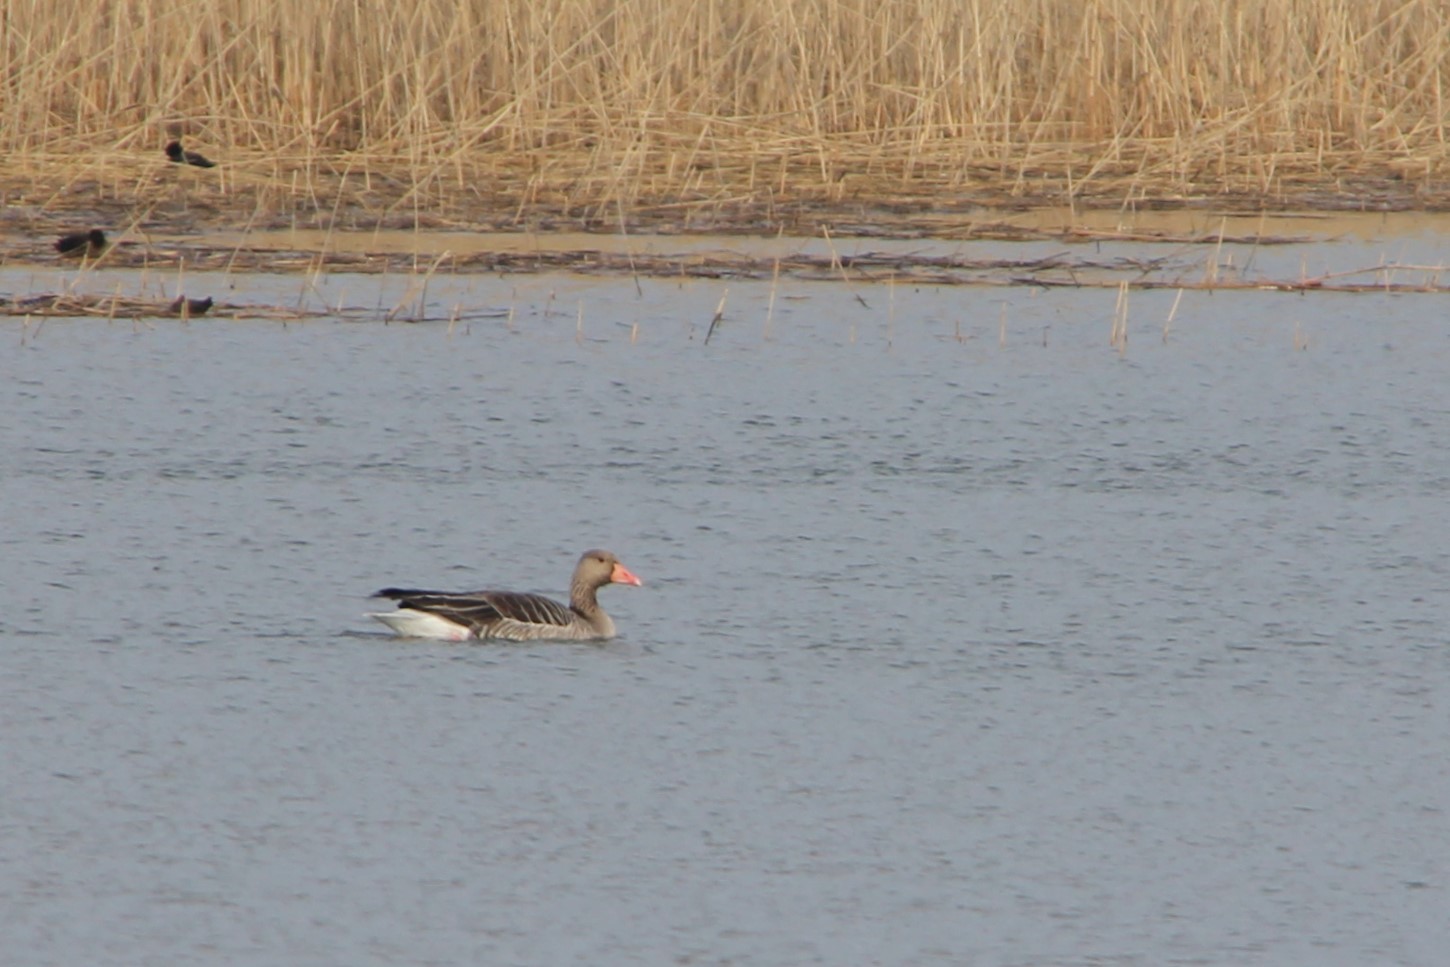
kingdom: Animalia
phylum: Chordata
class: Aves
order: Anseriformes
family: Anatidae
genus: Anser
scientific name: Anser anser
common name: Greylag goose
